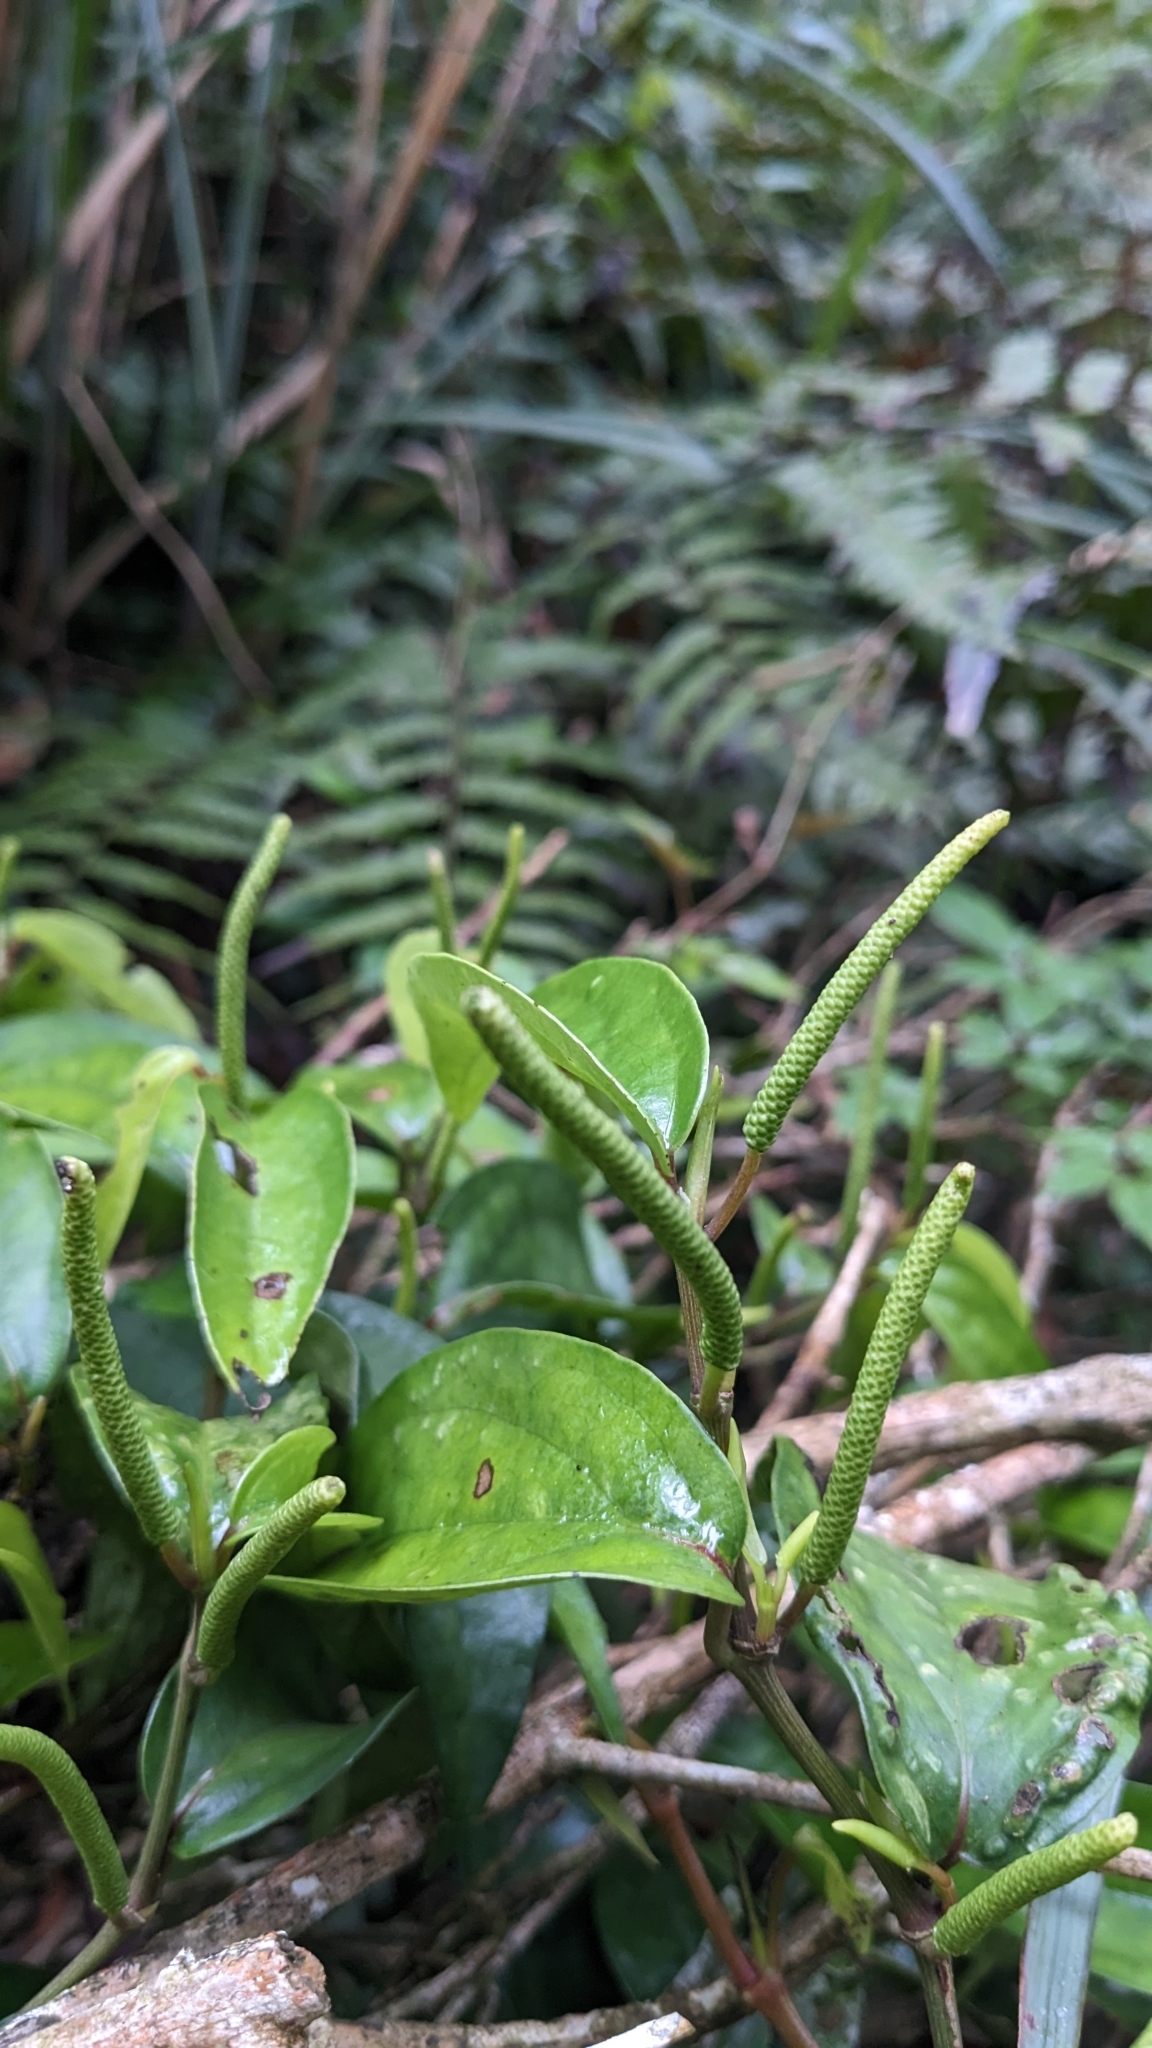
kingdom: Plantae
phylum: Tracheophyta
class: Magnoliopsida
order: Piperales
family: Piperaceae
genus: Piper
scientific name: Piper kadsura
